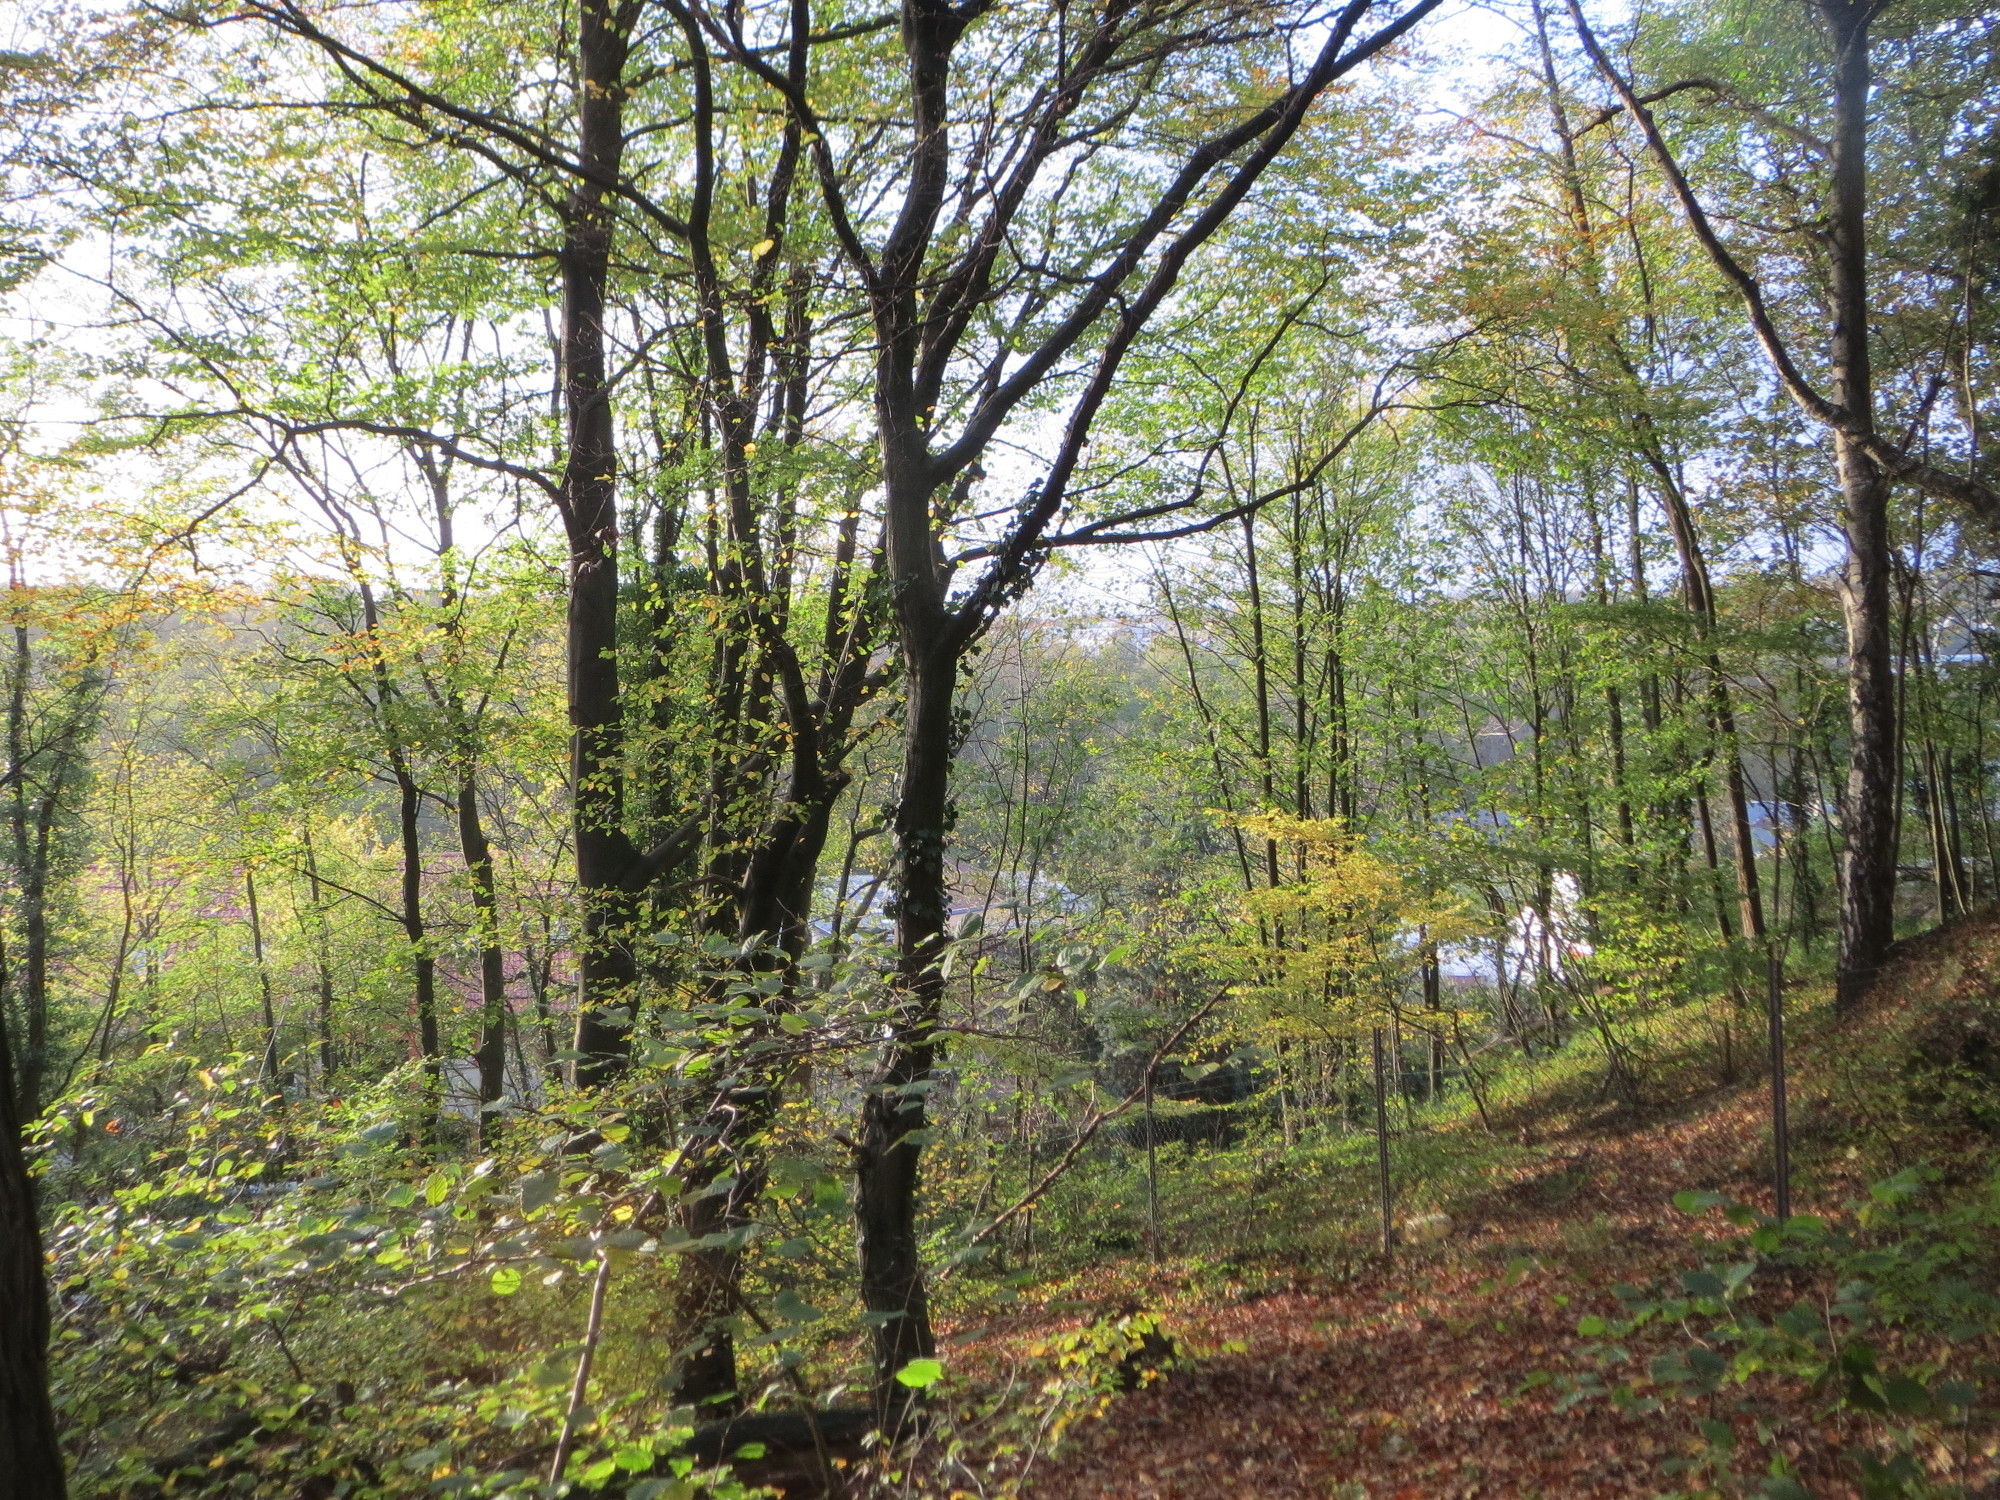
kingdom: Plantae
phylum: Tracheophyta
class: Magnoliopsida
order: Fagales
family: Fagaceae
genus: Fagus
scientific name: Fagus sylvatica
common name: Beech
